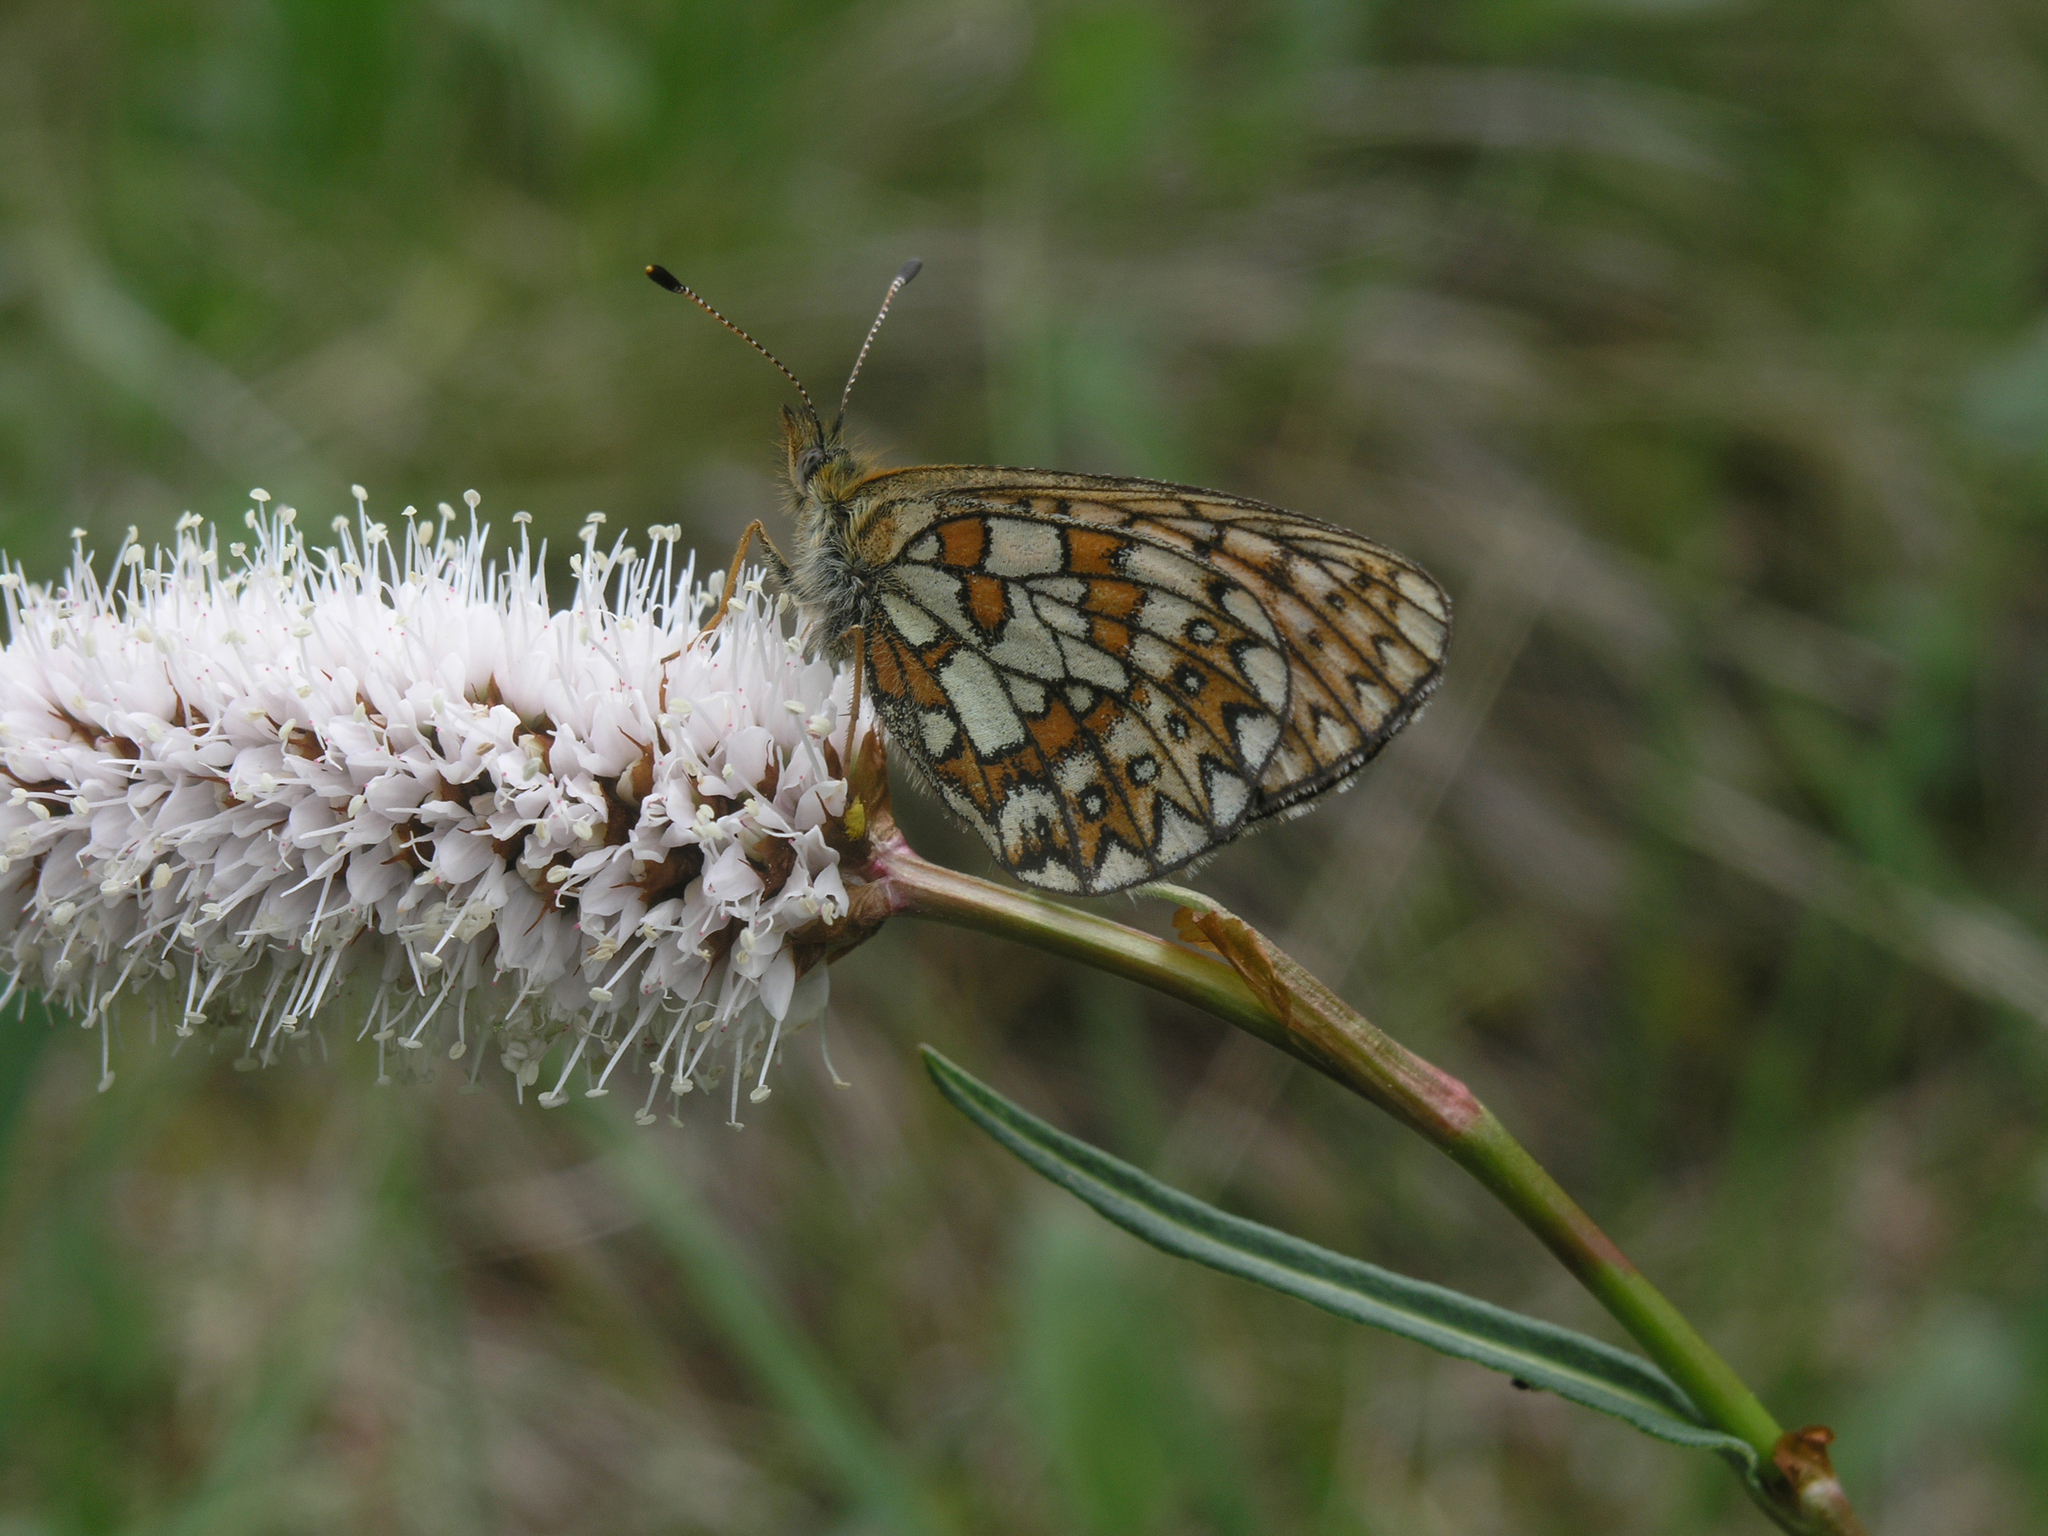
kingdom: Animalia
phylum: Arthropoda
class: Insecta
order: Lepidoptera
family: Nymphalidae
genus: Boloria
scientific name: Boloria eunomia
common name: Bog fritillary
